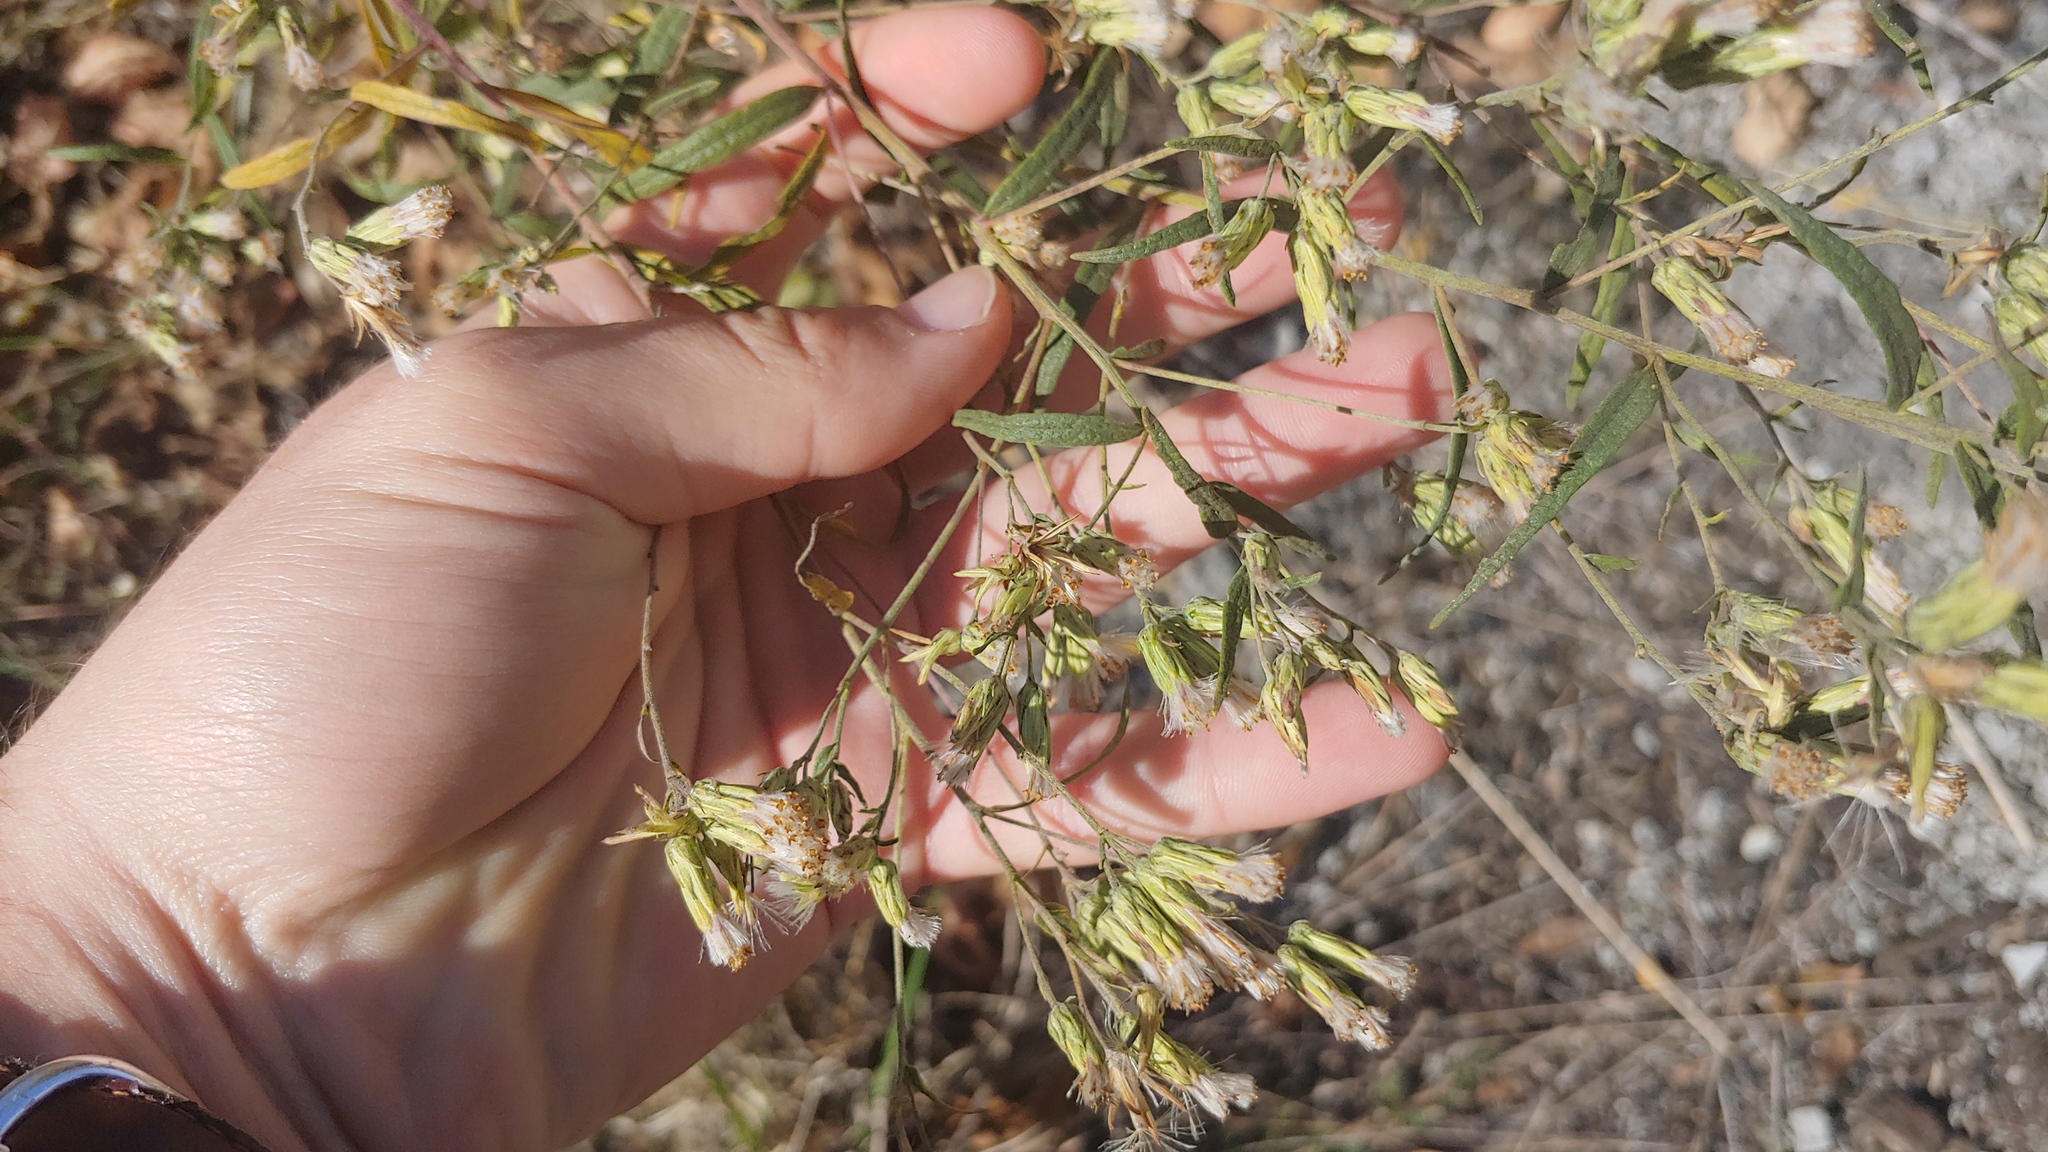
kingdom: Plantae
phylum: Tracheophyta
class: Magnoliopsida
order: Asterales
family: Asteraceae
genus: Brickellia
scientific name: Brickellia suaveolens
